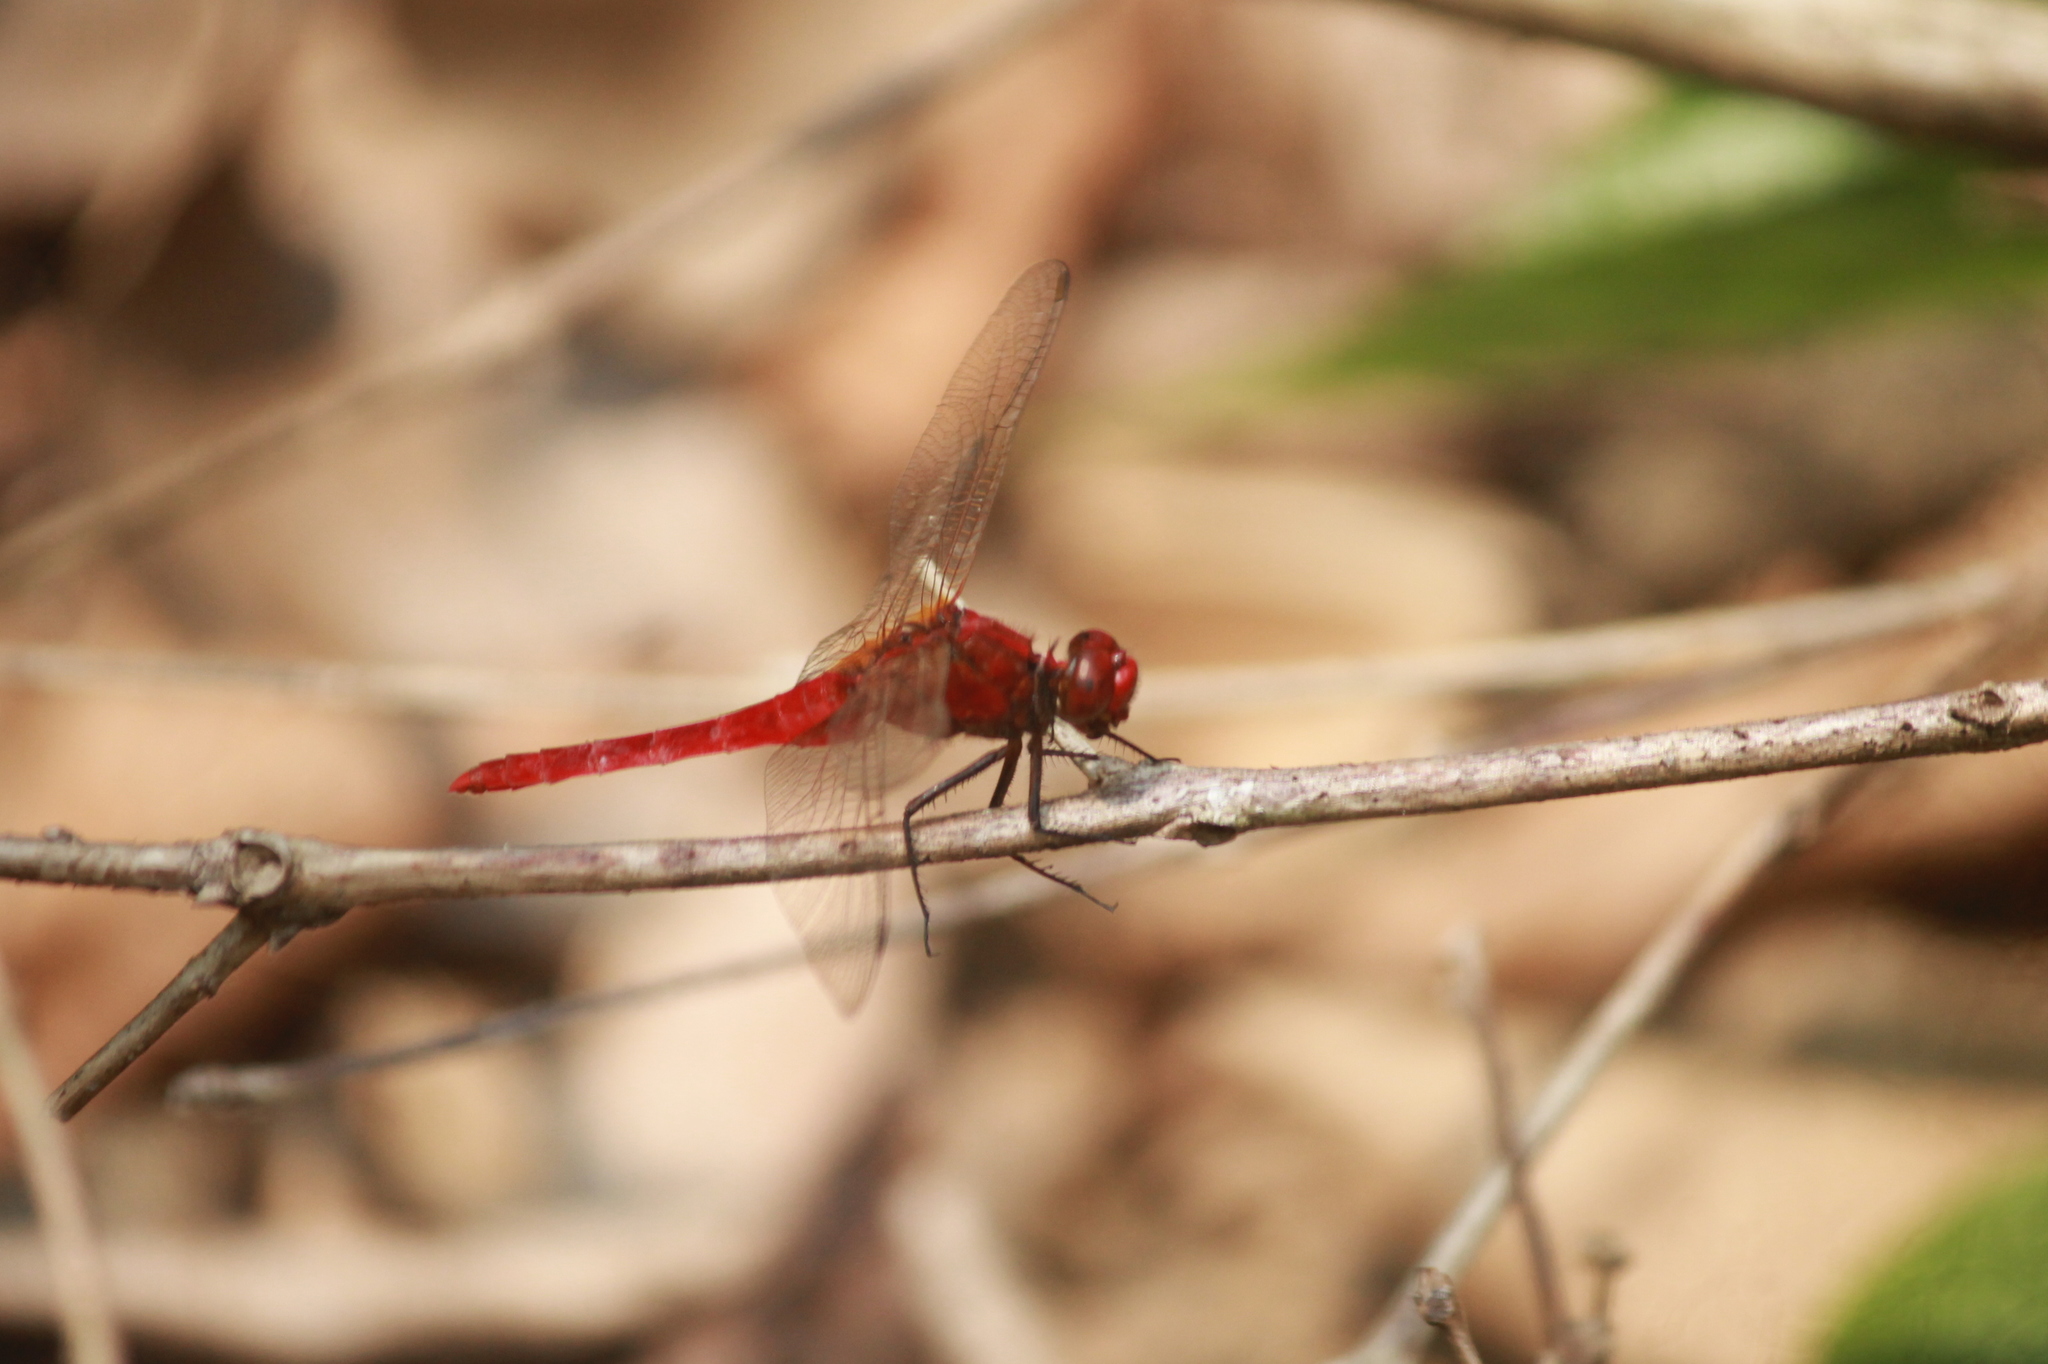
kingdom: Animalia
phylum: Arthropoda
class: Insecta
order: Odonata
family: Libellulidae
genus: Rhodothemis
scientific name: Rhodothemis rufa
